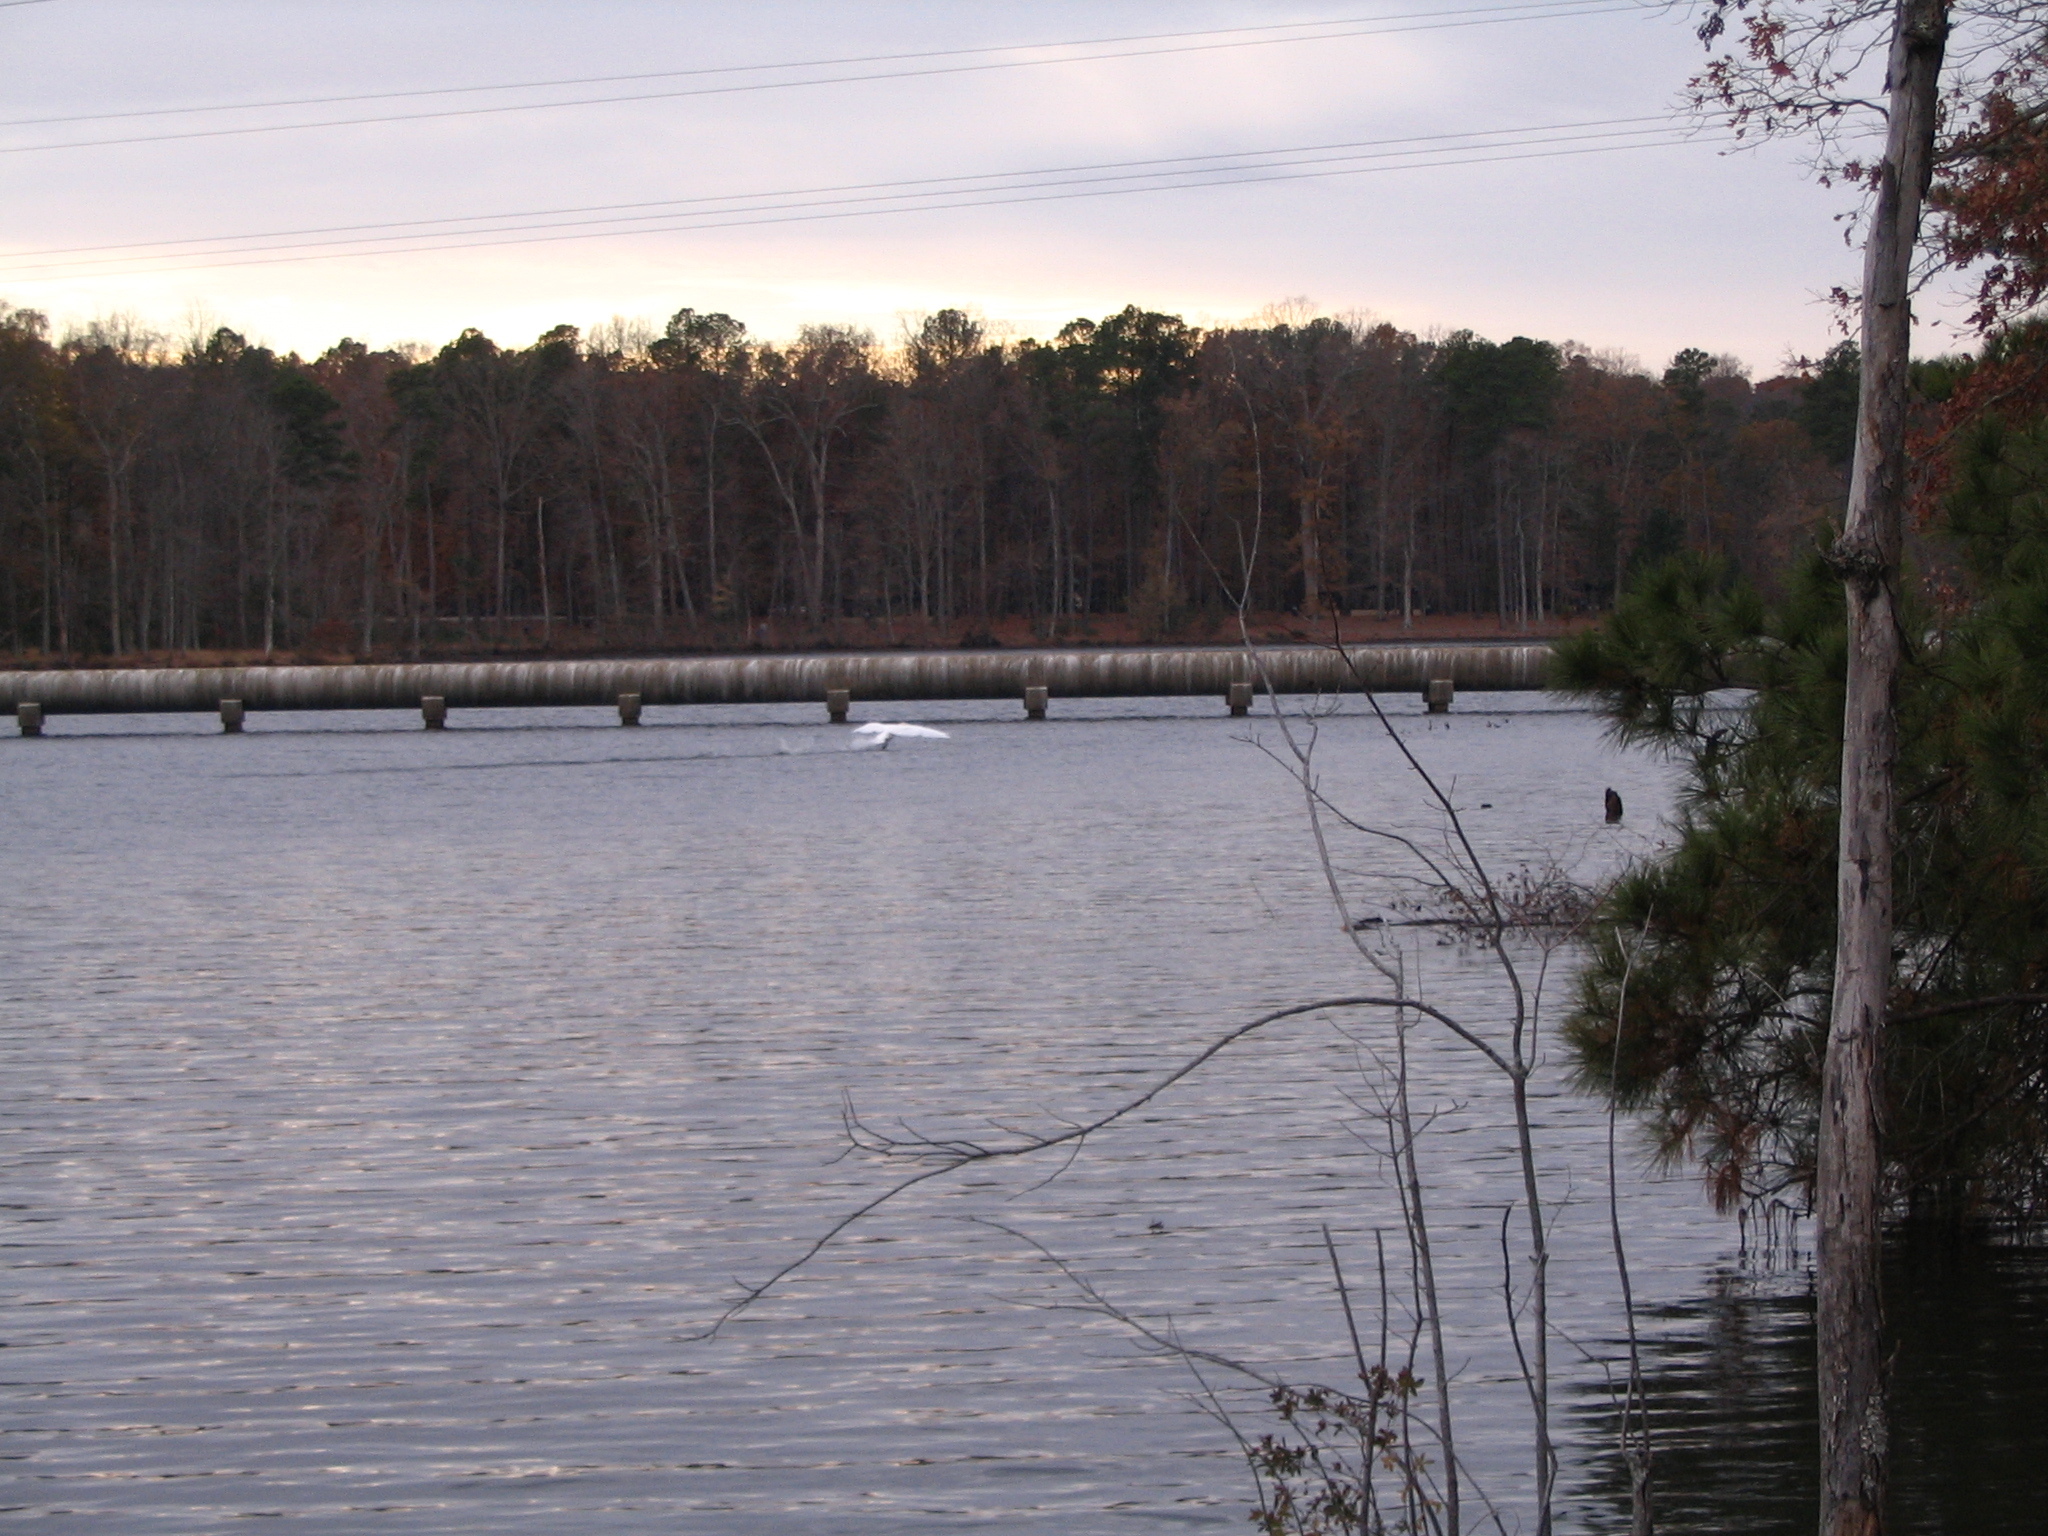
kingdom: Animalia
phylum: Chordata
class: Aves
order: Anseriformes
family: Anatidae
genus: Cygnus
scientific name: Cygnus olor
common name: Mute swan
